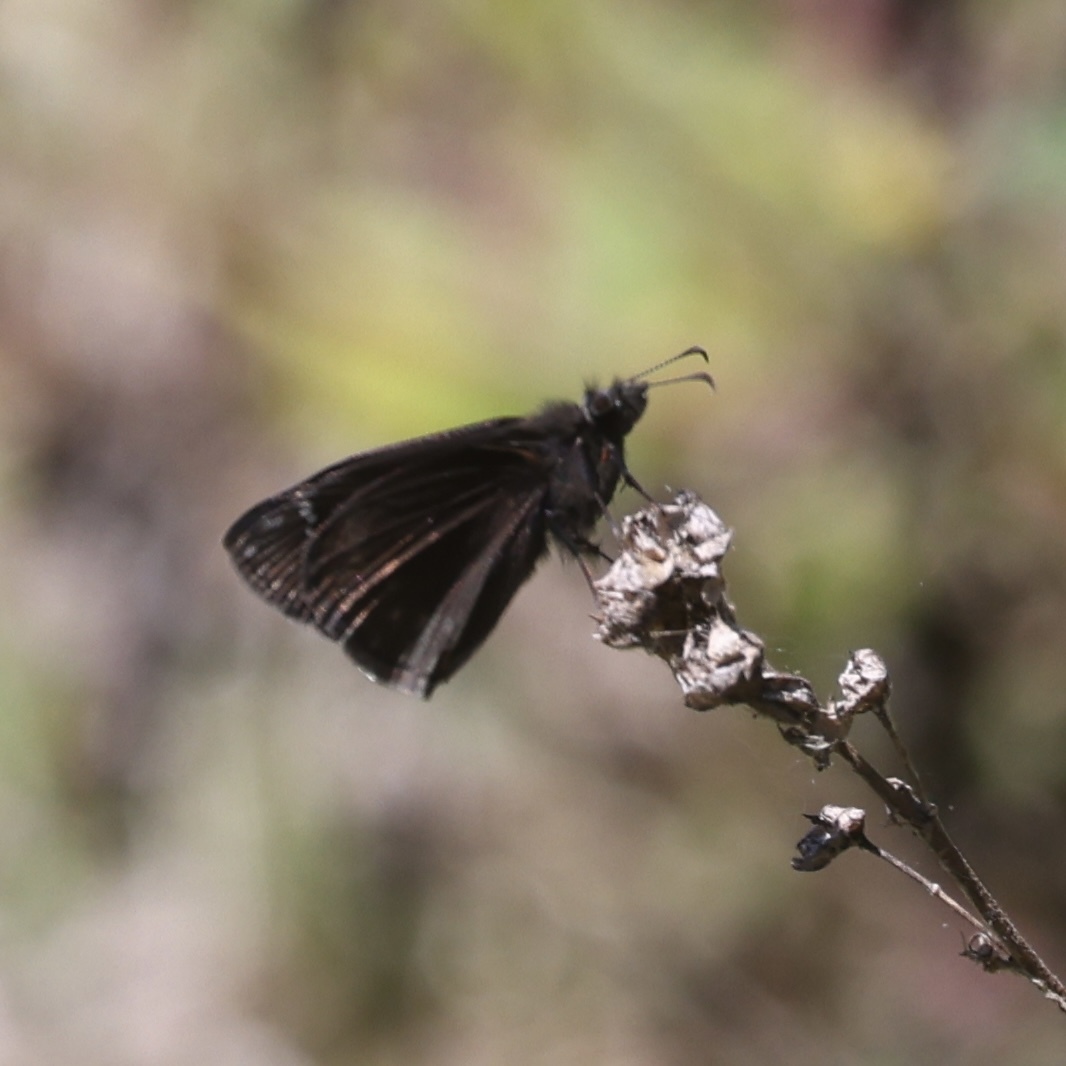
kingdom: Animalia
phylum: Arthropoda
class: Insecta
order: Lepidoptera
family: Hesperiidae
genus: Erynnis
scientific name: Erynnis zarucco
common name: Zarucco duskywing
